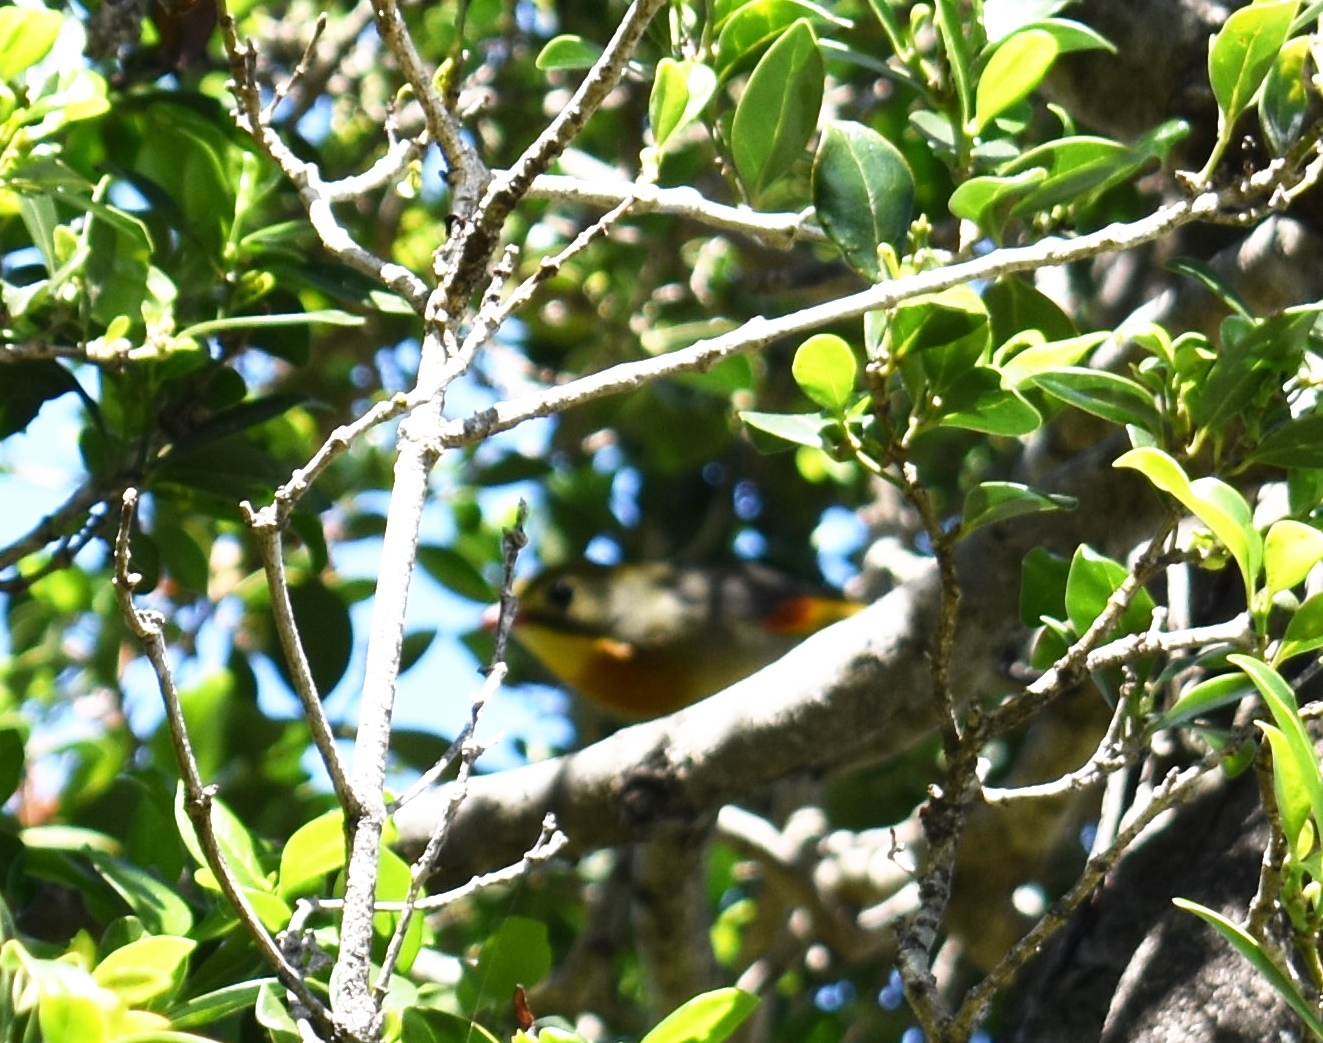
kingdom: Animalia
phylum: Chordata
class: Aves
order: Passeriformes
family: Leiothrichidae
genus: Leiothrix
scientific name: Leiothrix lutea
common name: Red-billed leiothrix
